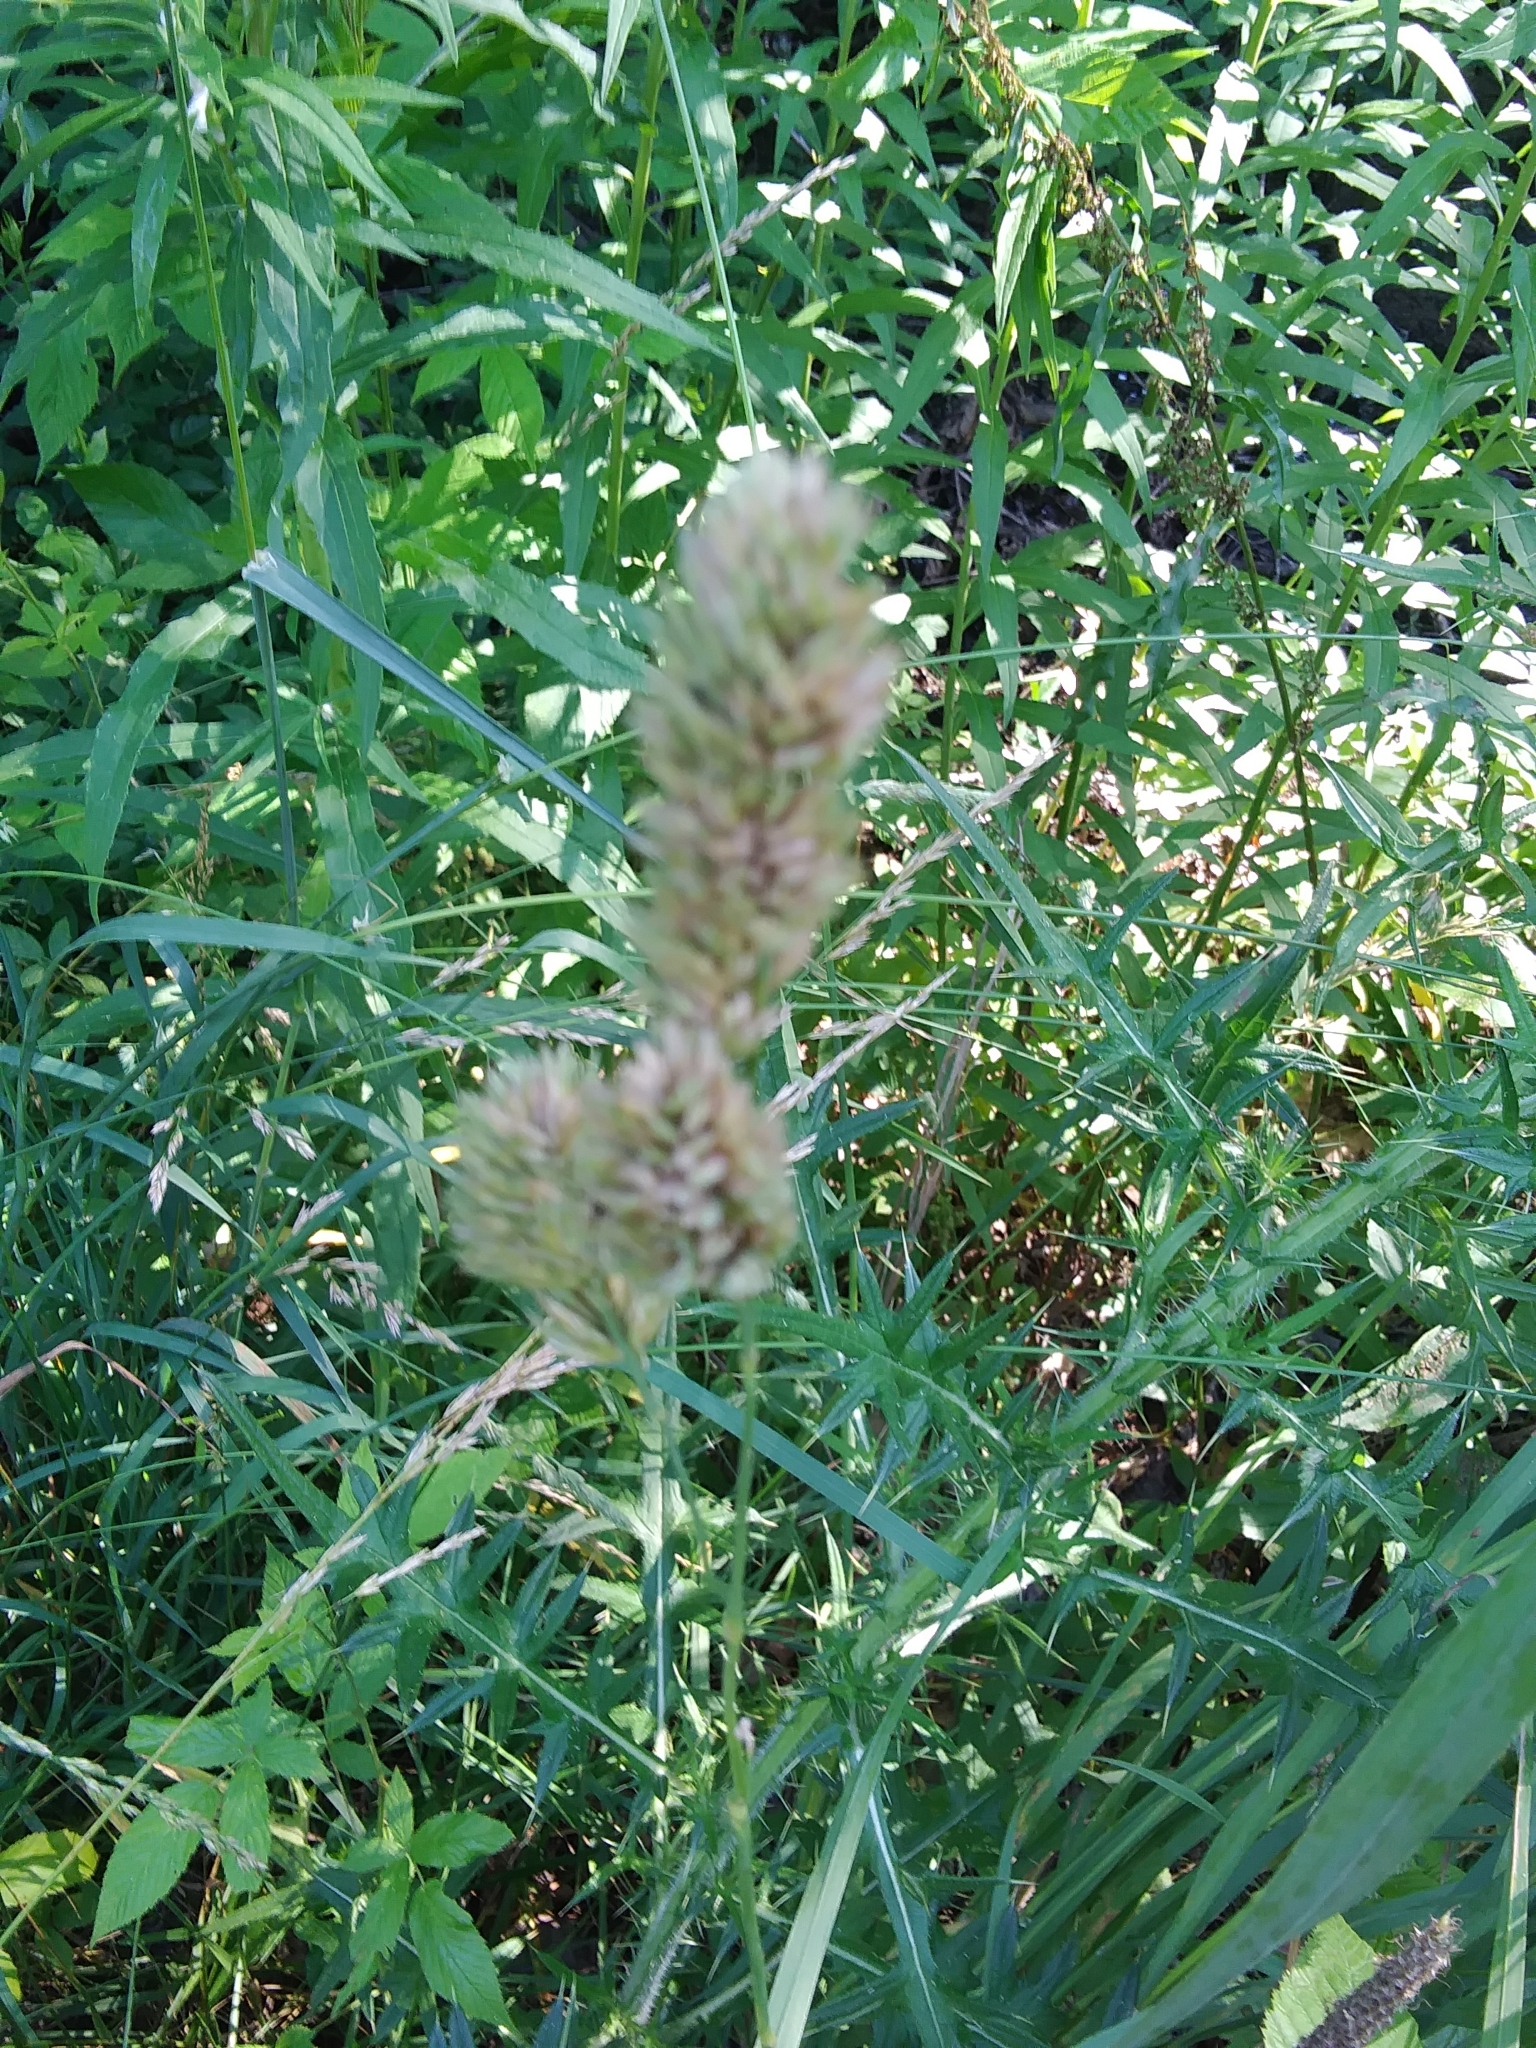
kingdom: Plantae
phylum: Tracheophyta
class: Liliopsida
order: Poales
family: Poaceae
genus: Dactylis
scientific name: Dactylis glomerata
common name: Orchardgrass
